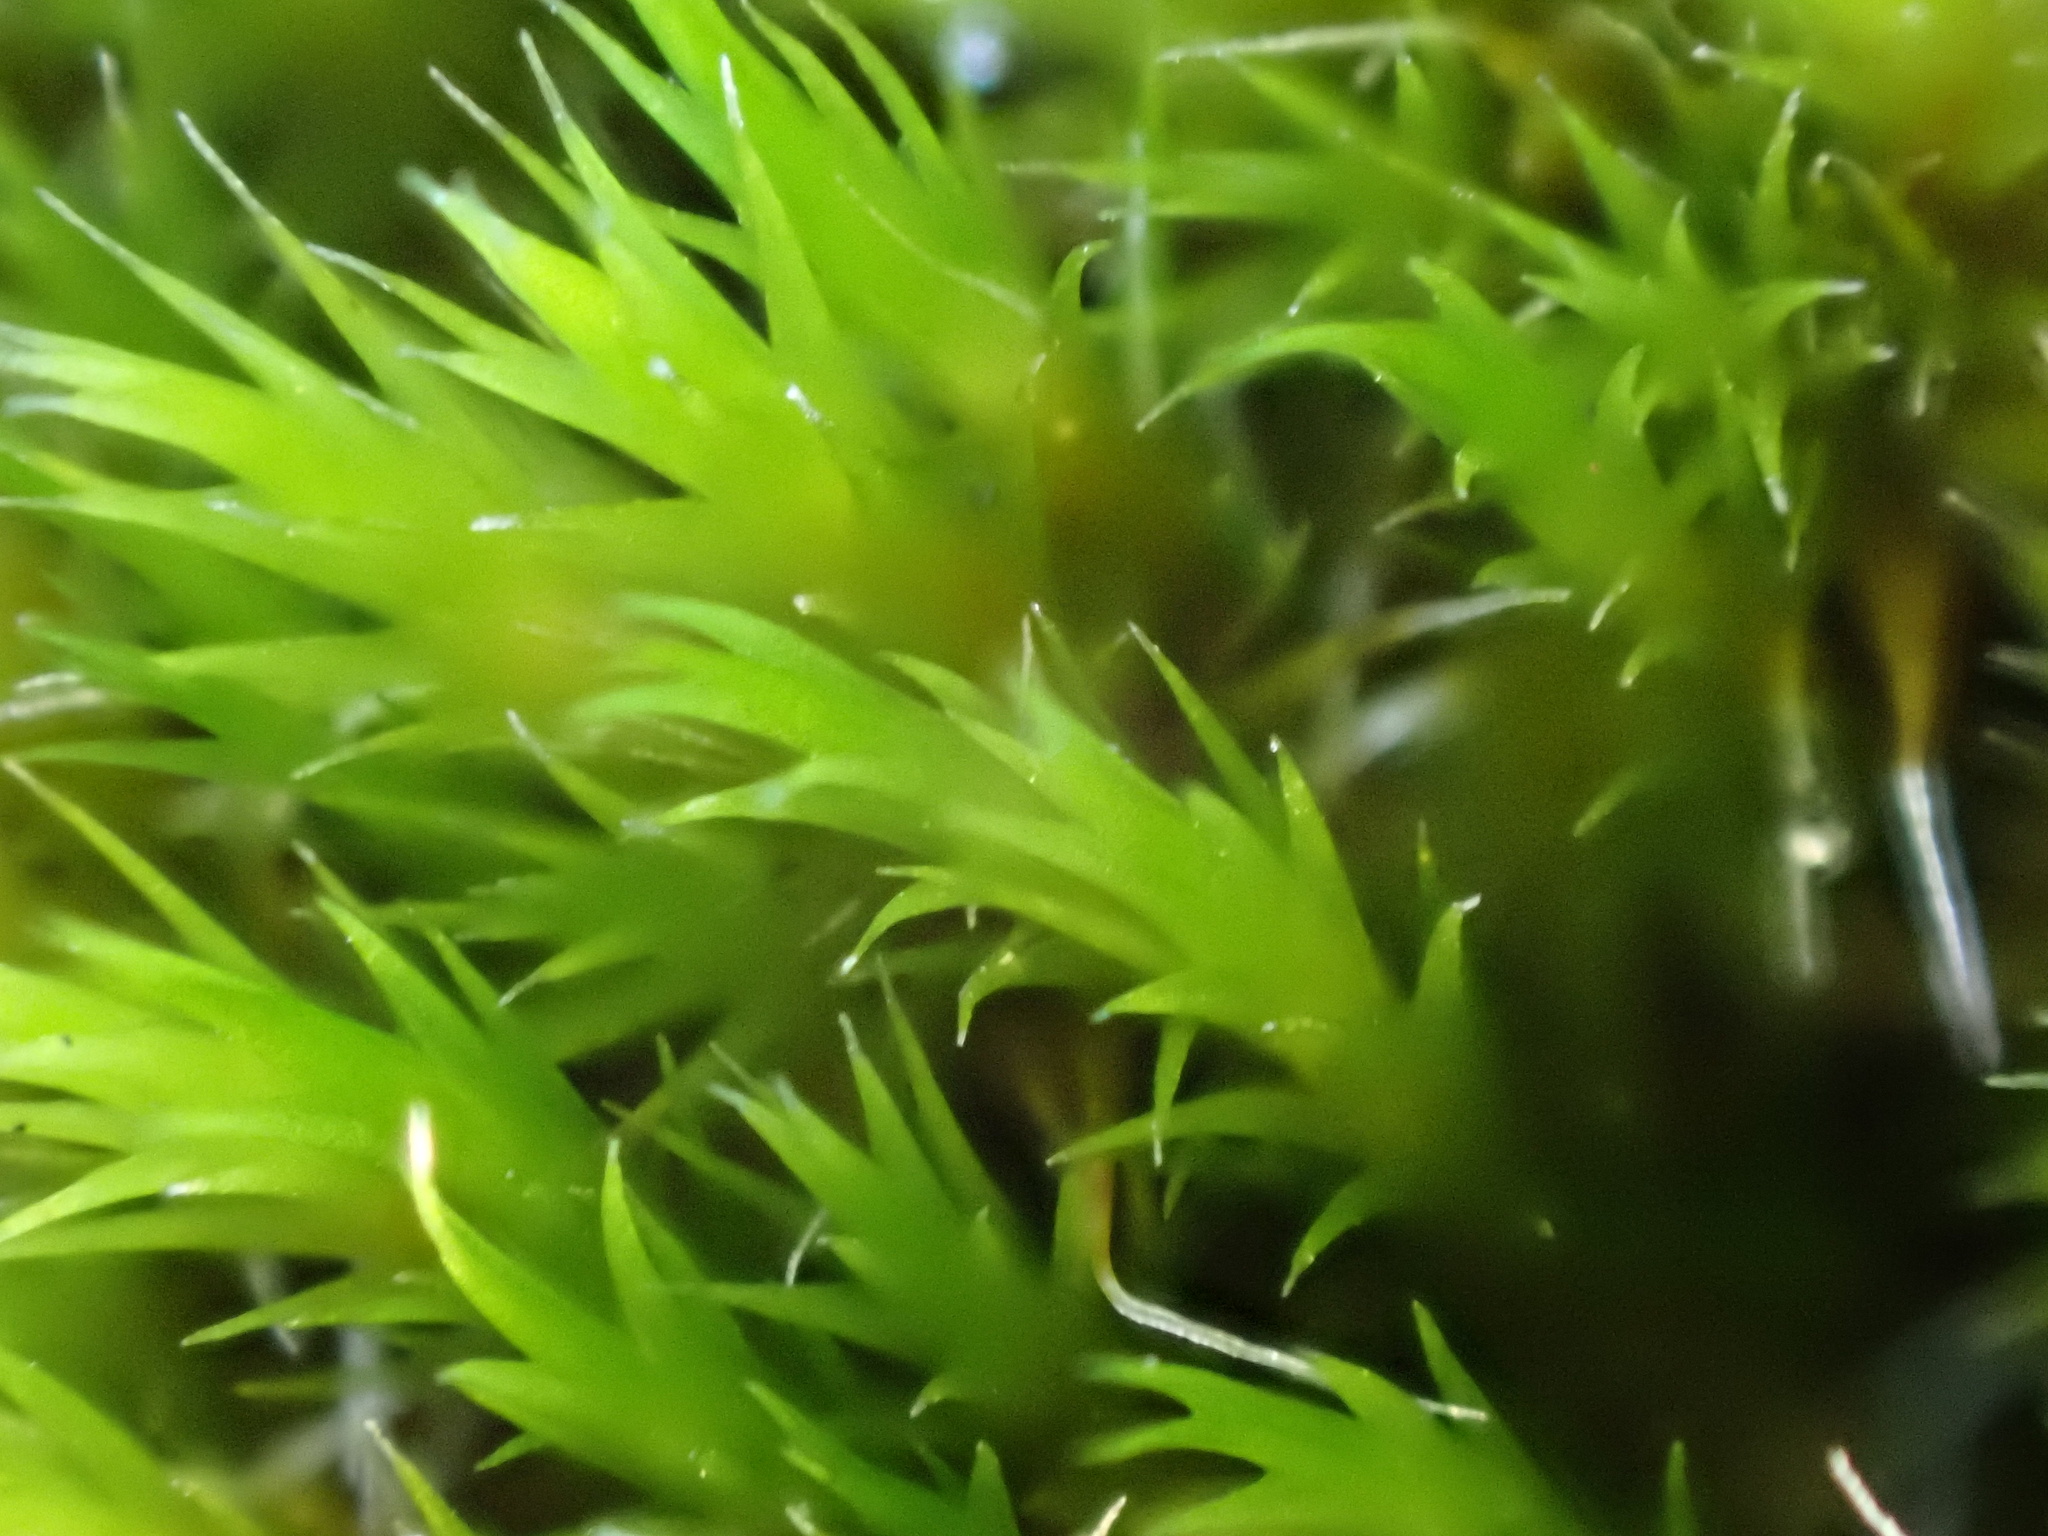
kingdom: Plantae
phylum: Bryophyta
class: Bryopsida
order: Dicranales
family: Leucobryaceae
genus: Campylopus
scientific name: Campylopus introflexus
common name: Heath star moss
